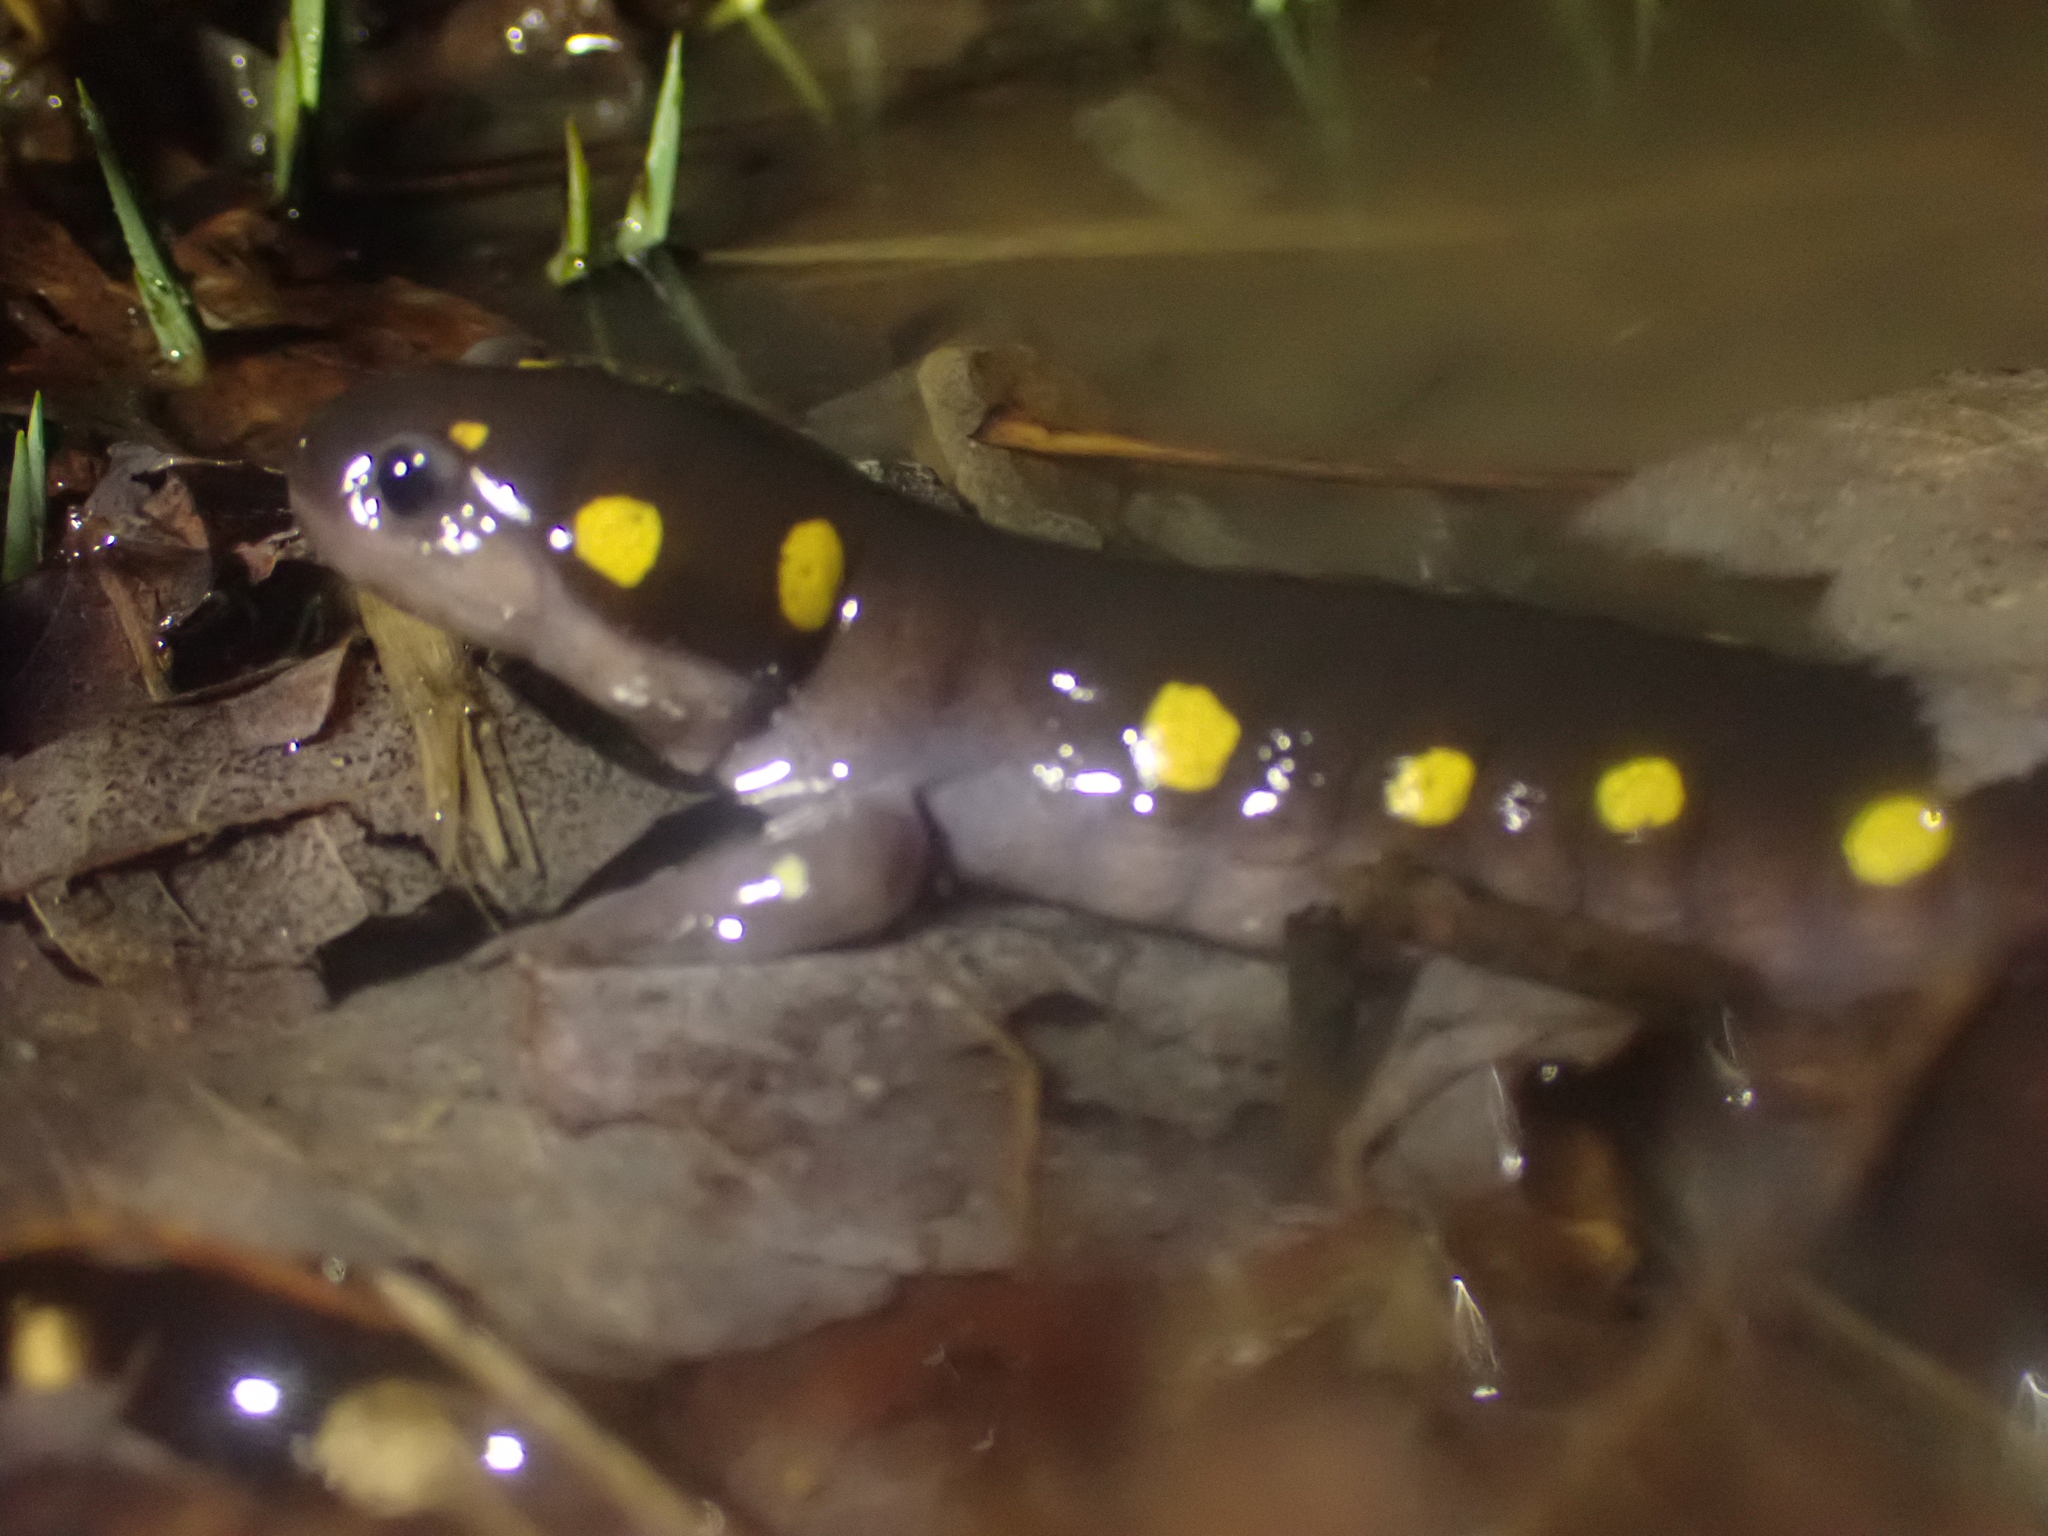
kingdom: Animalia
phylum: Chordata
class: Amphibia
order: Caudata
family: Ambystomatidae
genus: Ambystoma
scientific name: Ambystoma maculatum
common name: Spotted salamander
